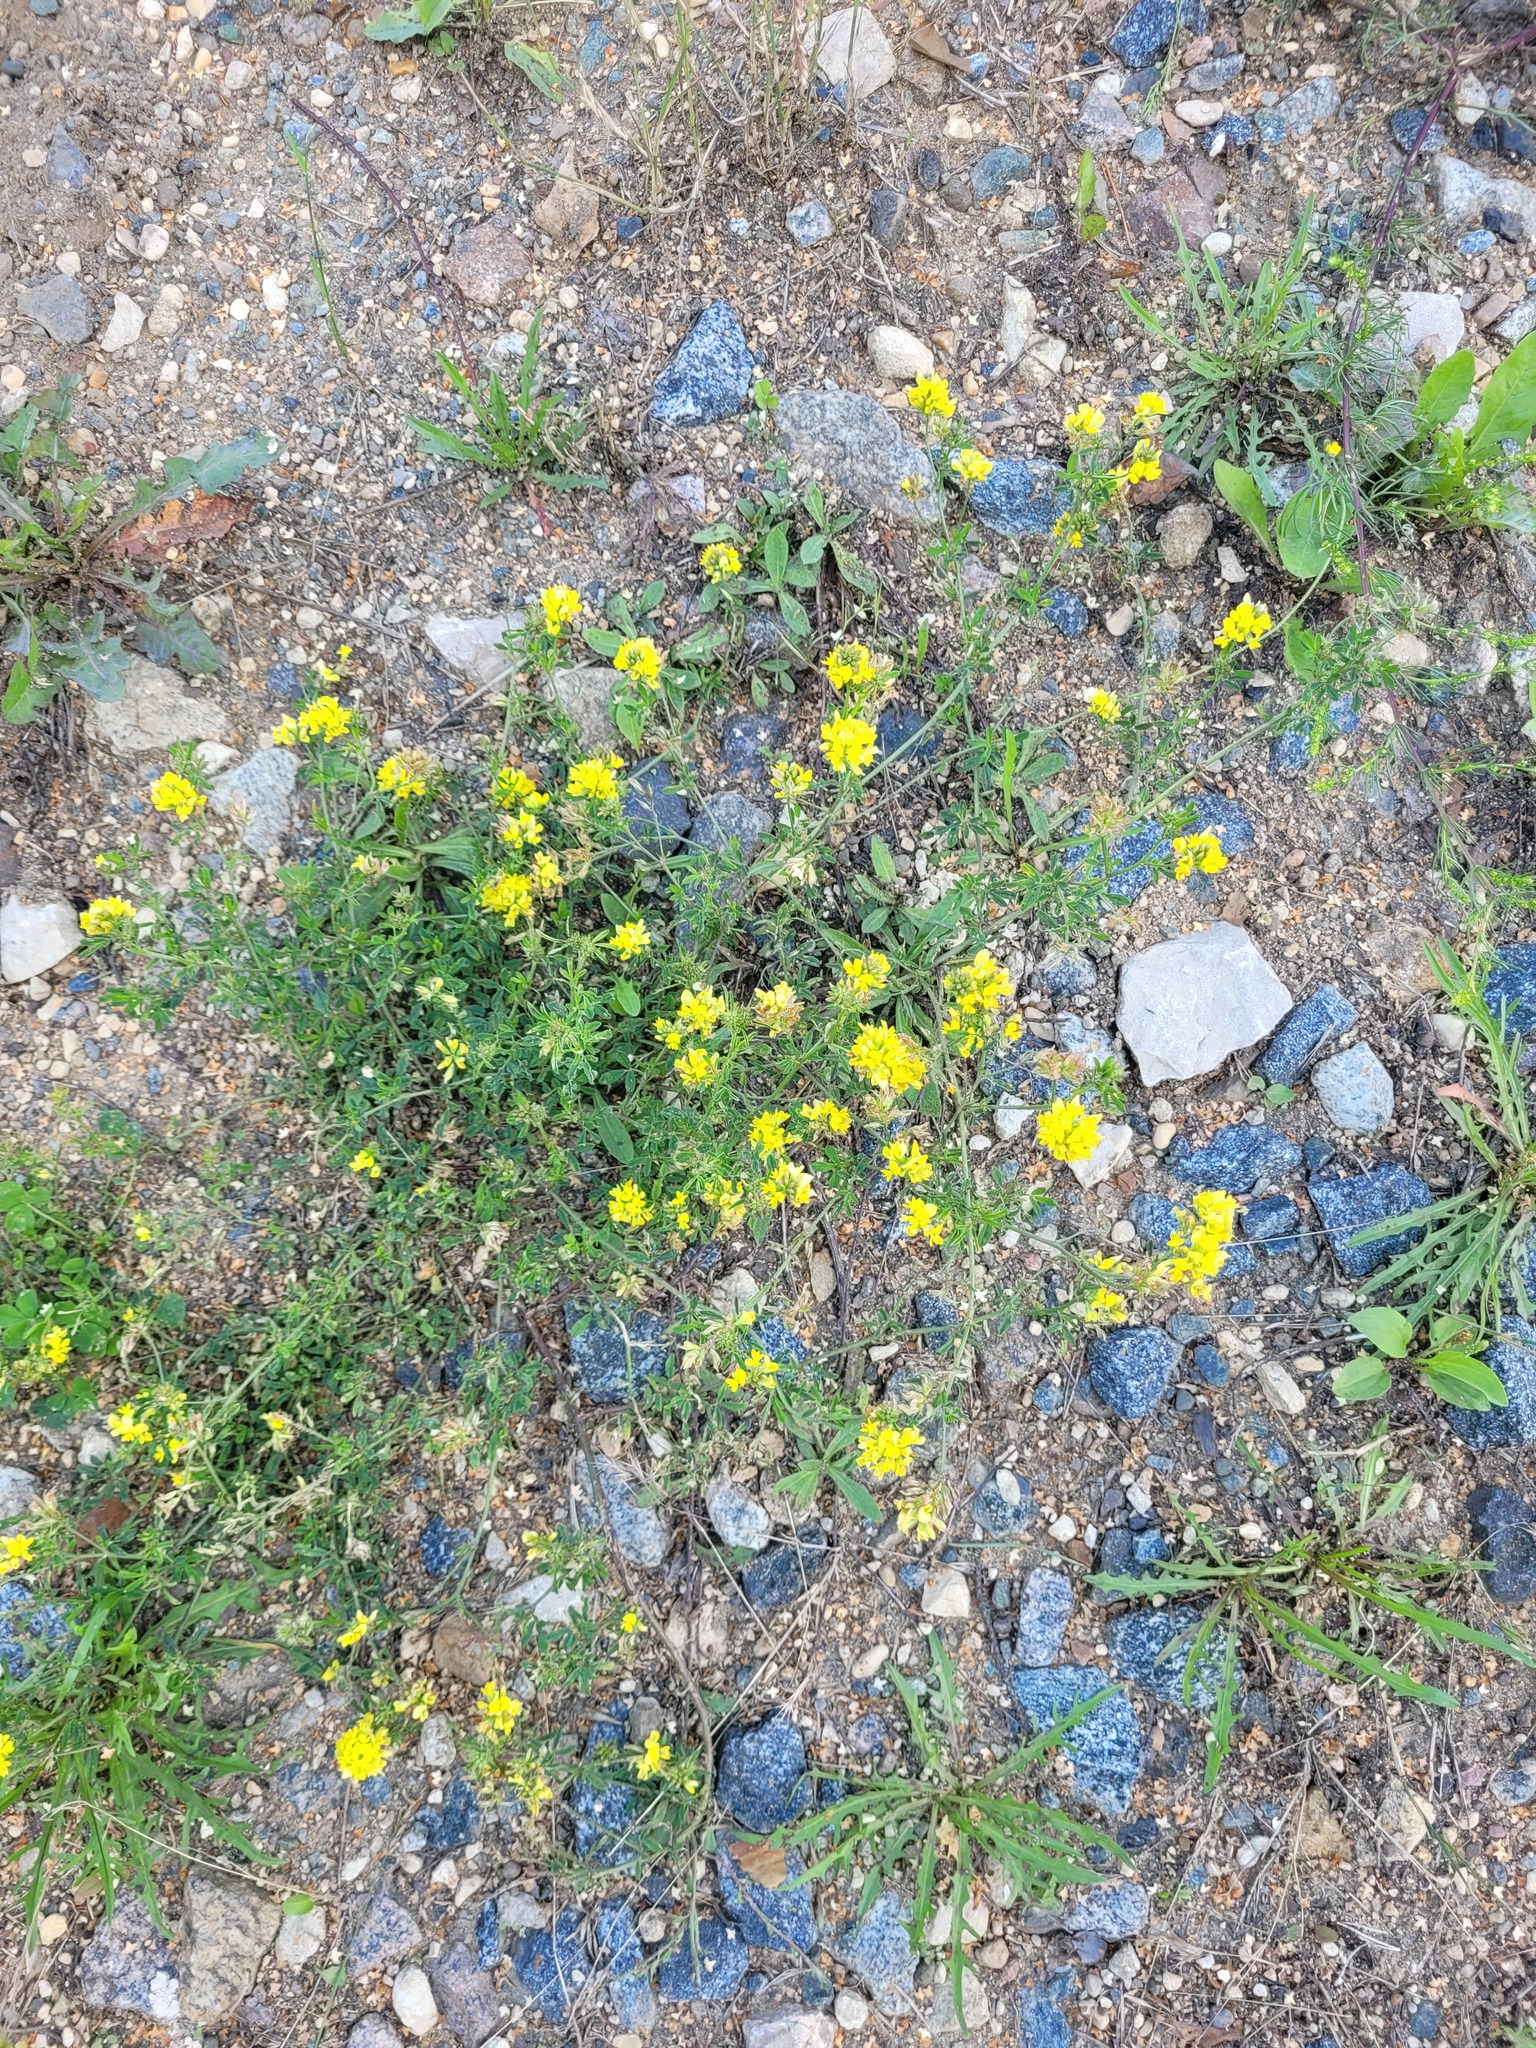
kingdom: Plantae
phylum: Tracheophyta
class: Magnoliopsida
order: Fabales
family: Fabaceae
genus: Medicago
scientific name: Medicago falcata
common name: Sickle medick
